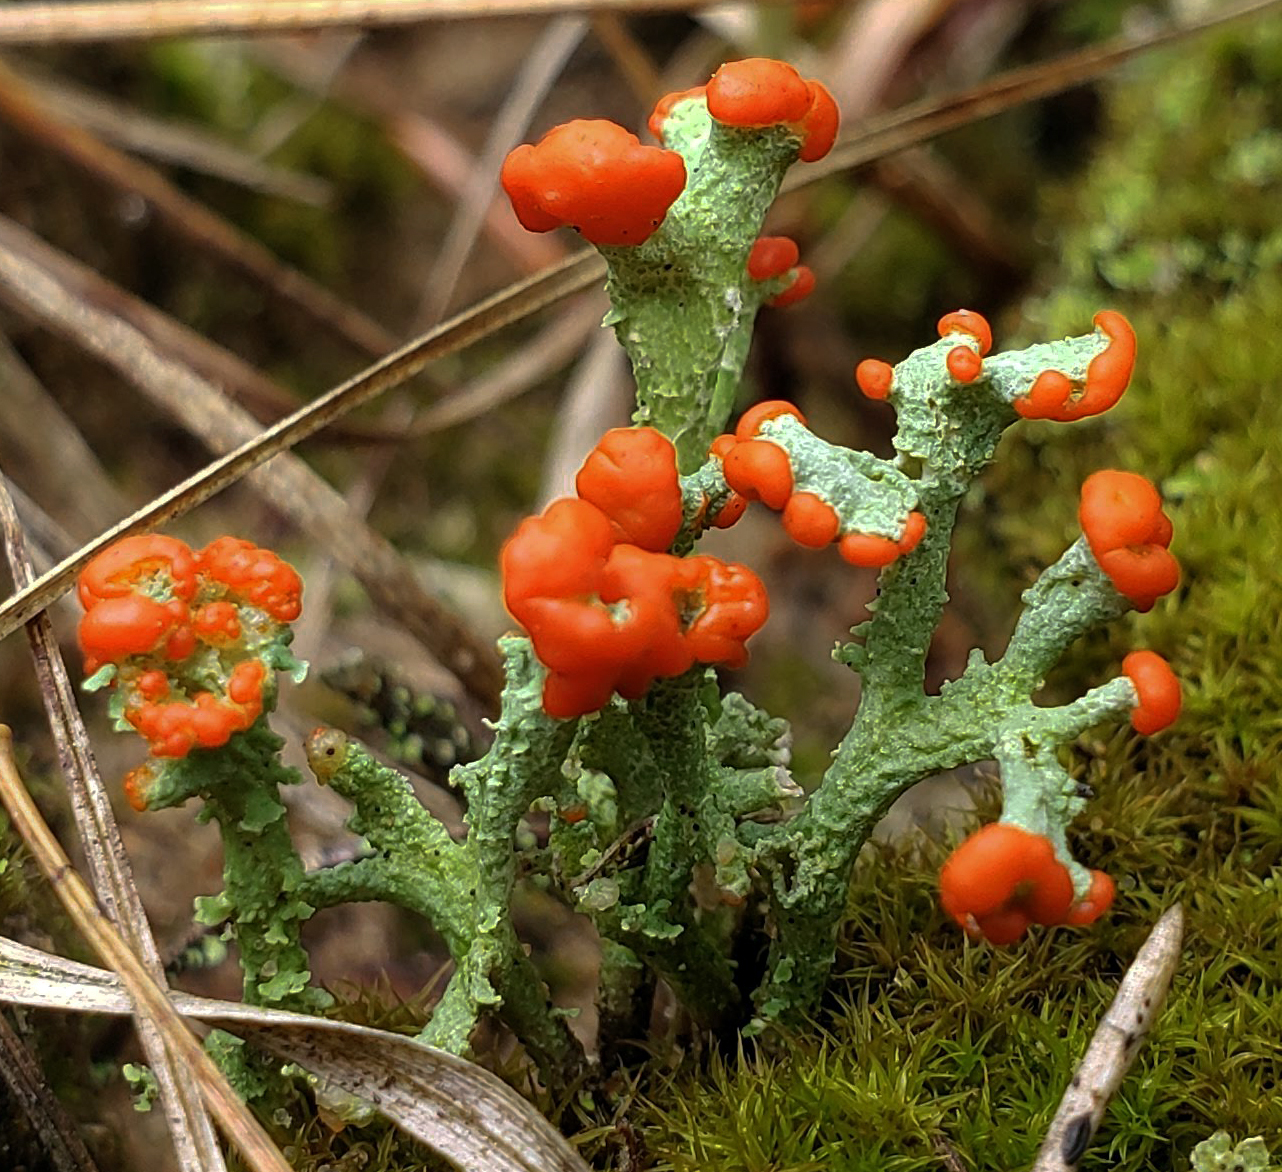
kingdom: Fungi
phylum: Ascomycota
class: Lecanoromycetes
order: Lecanorales
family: Cladoniaceae
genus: Cladonia
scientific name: Cladonia cristatella
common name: British soldier lichen
